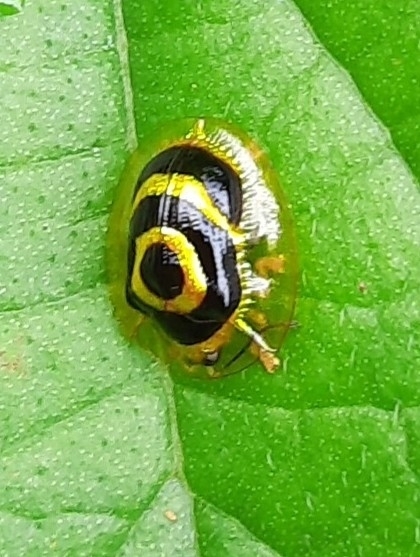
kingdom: Animalia
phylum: Arthropoda
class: Insecta
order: Coleoptera
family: Chrysomelidae
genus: Ischnocodia
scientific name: Ischnocodia annulus
